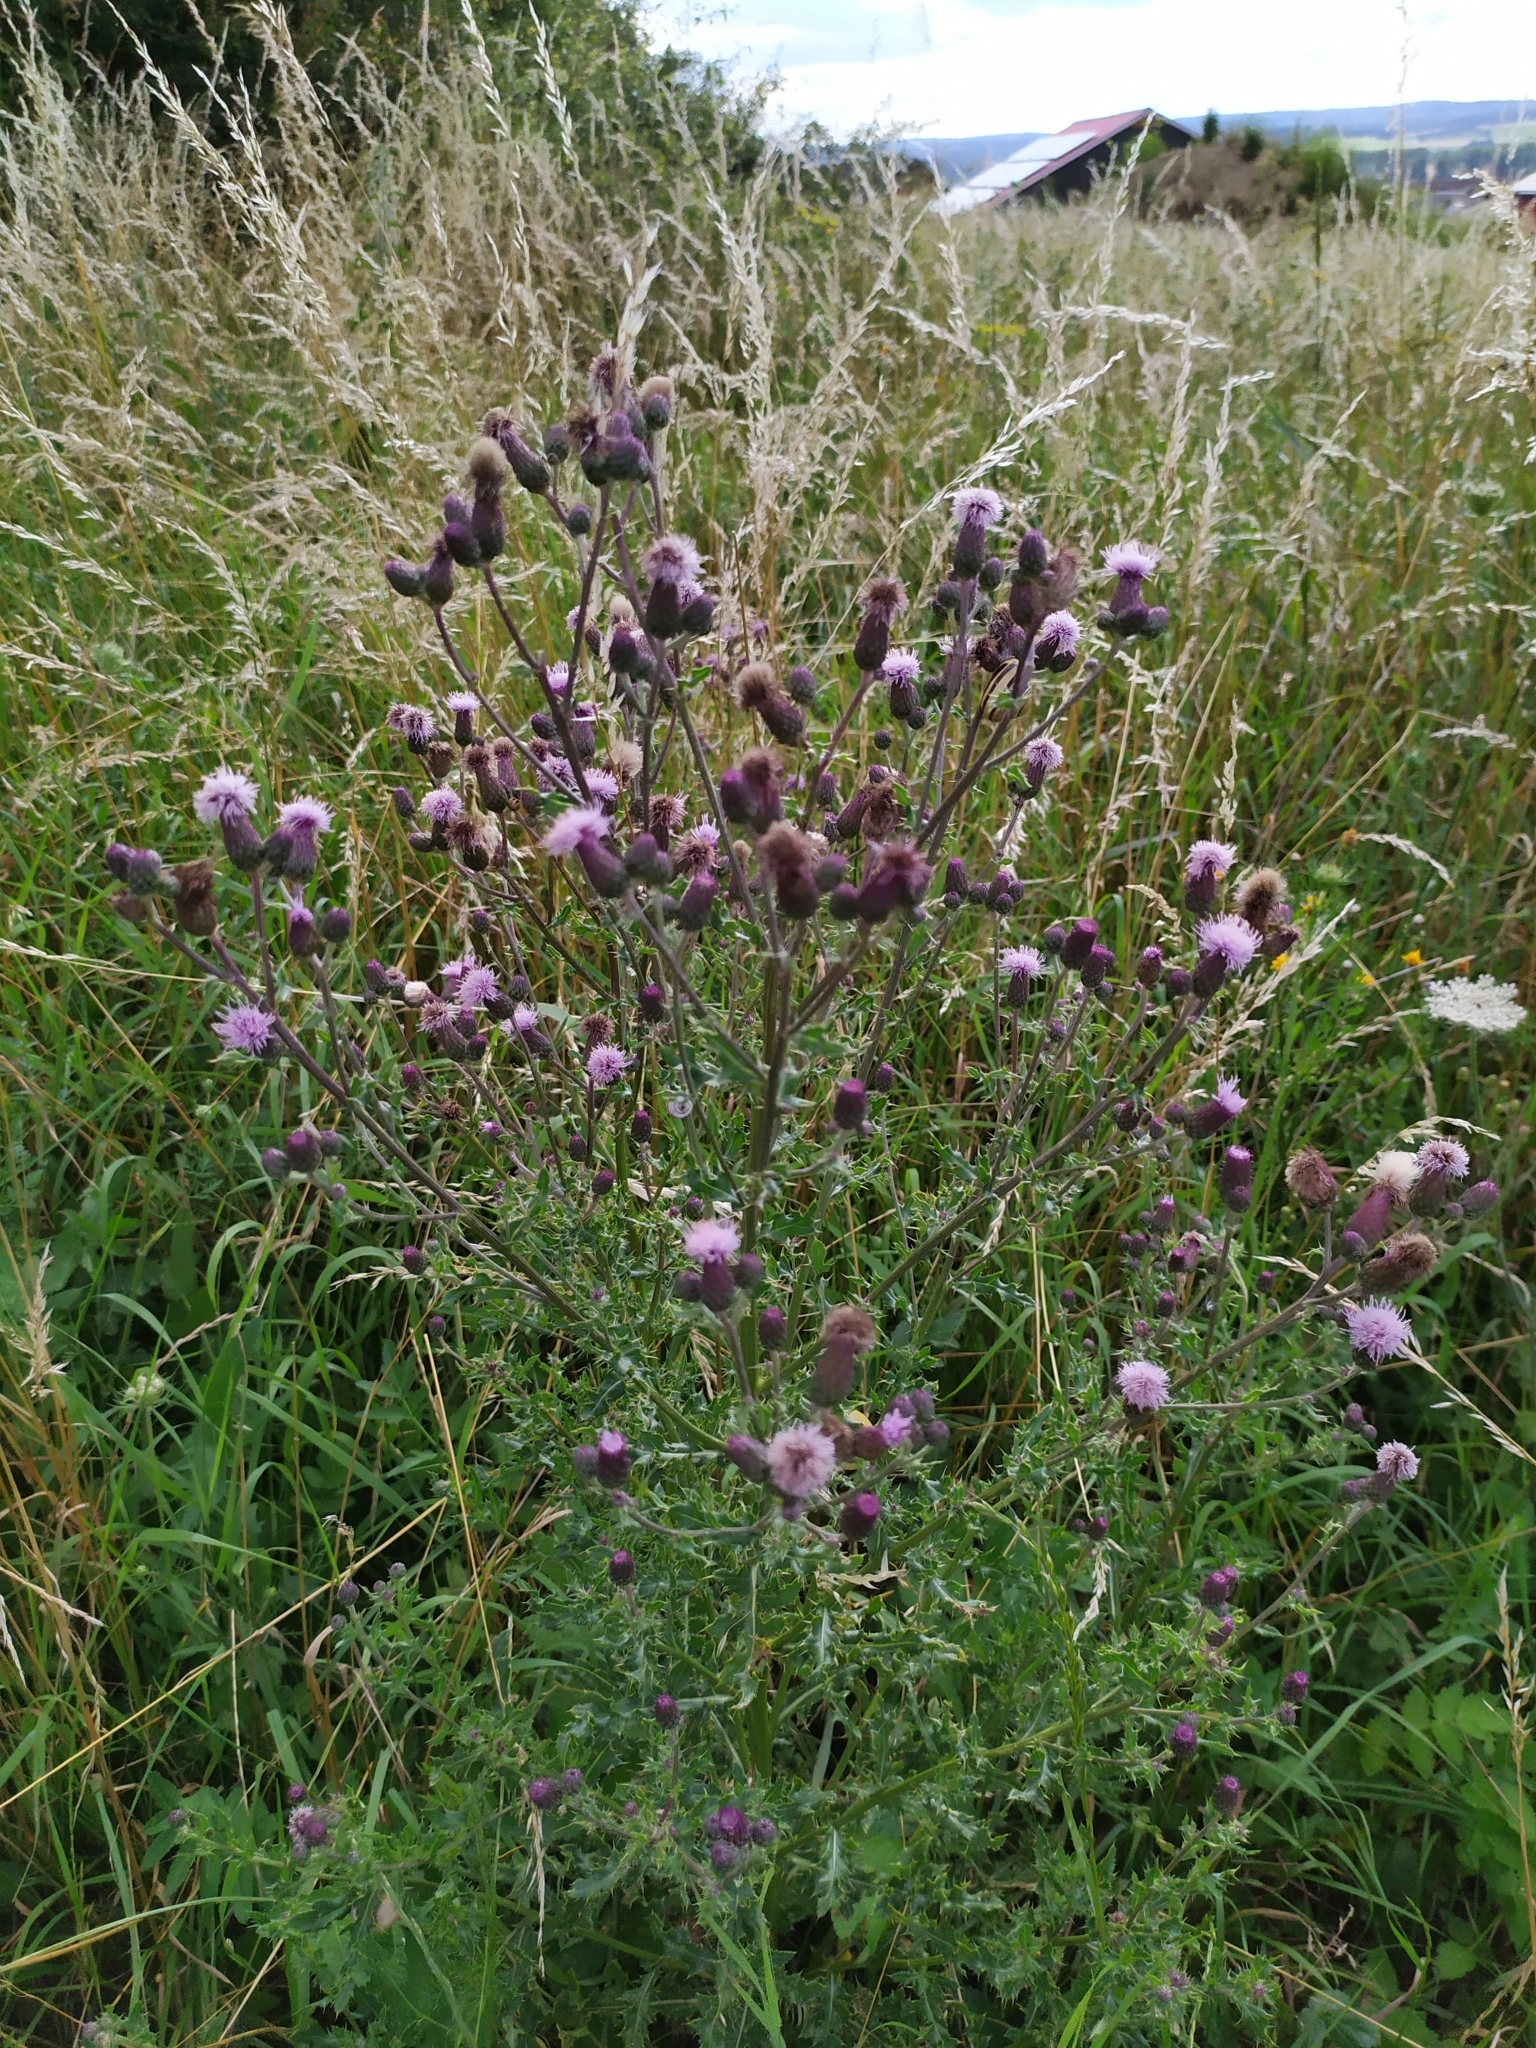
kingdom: Plantae
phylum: Tracheophyta
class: Magnoliopsida
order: Asterales
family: Asteraceae
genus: Cirsium
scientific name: Cirsium arvense
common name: Creeping thistle
